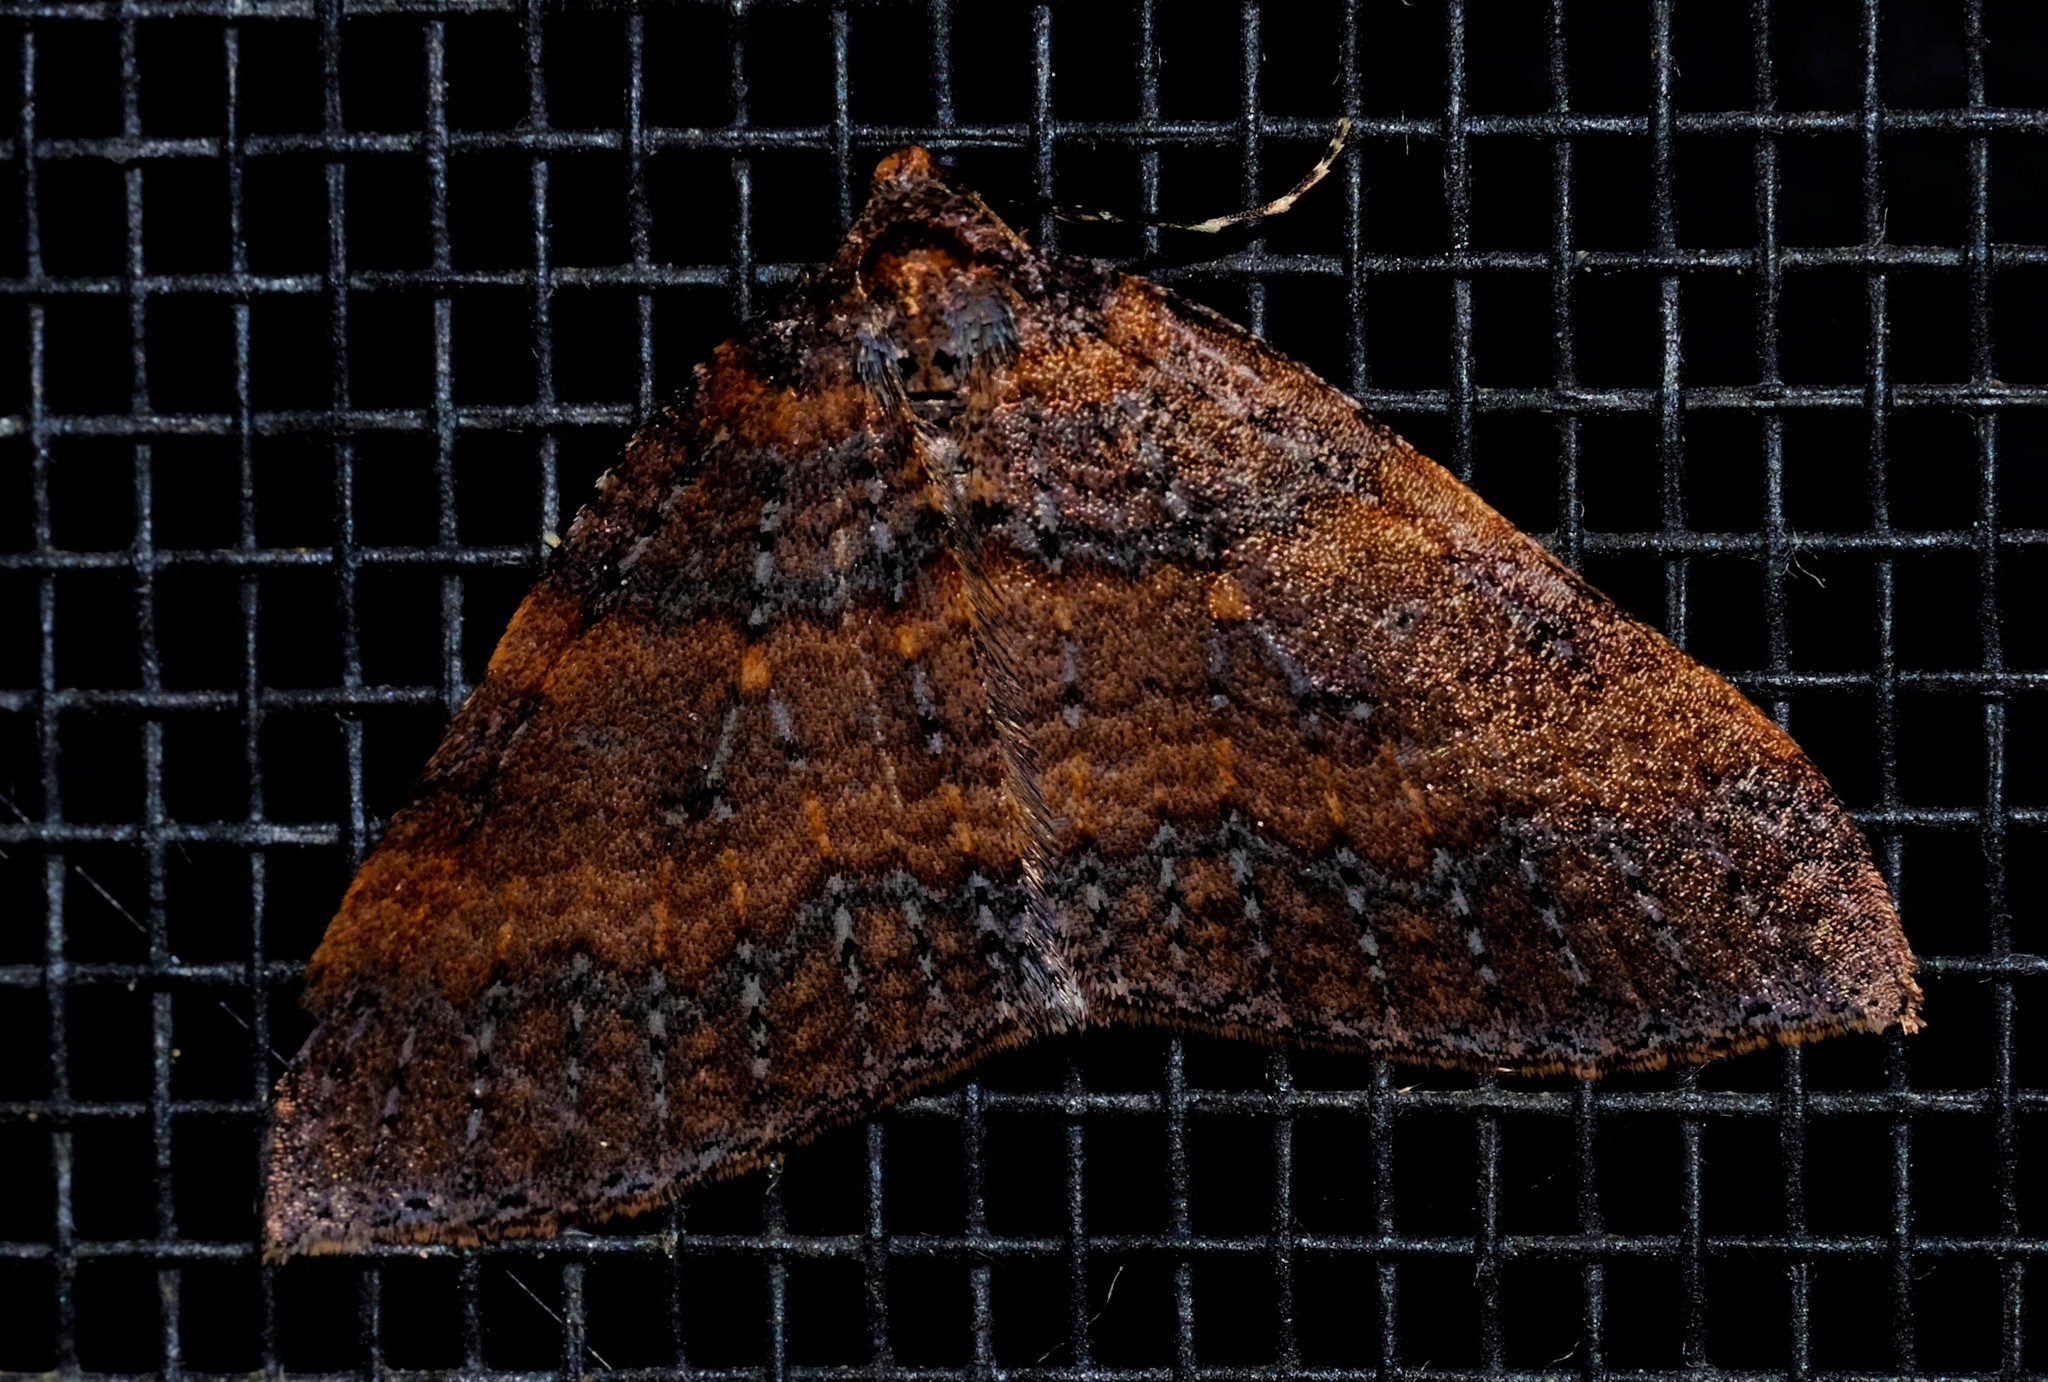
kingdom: Animalia
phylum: Arthropoda
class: Insecta
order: Lepidoptera
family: Geometridae
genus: Larentia
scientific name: Larentia apotoma
